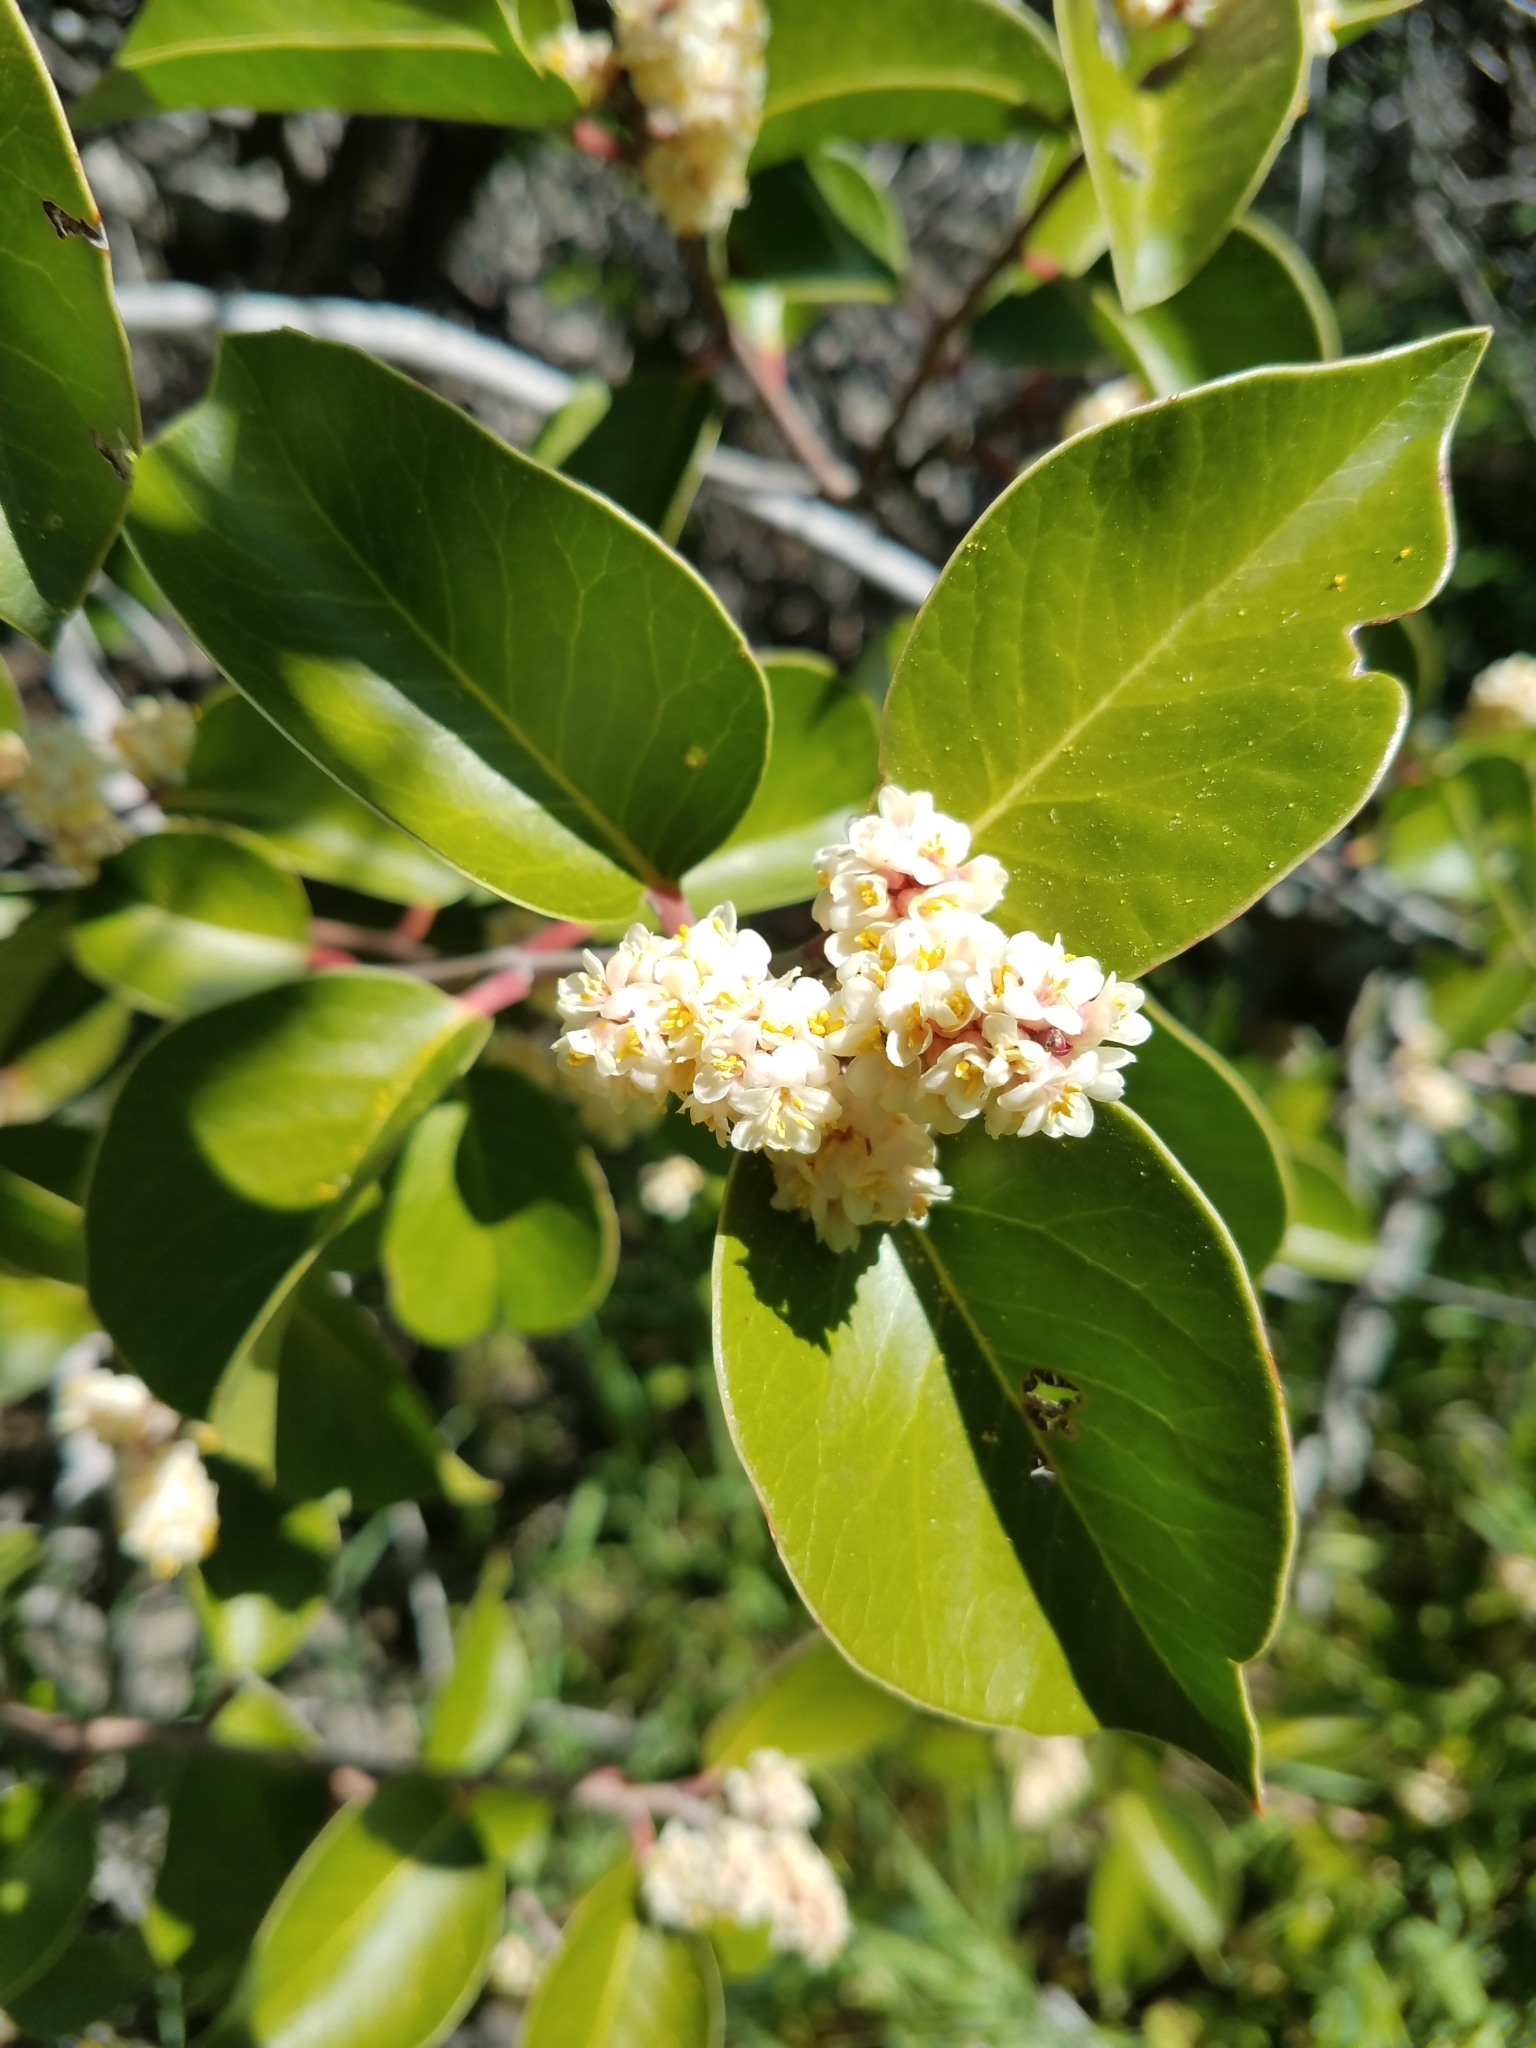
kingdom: Plantae
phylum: Tracheophyta
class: Magnoliopsida
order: Sapindales
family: Anacardiaceae
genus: Rhus
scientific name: Rhus ovata
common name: Sugar sumac
